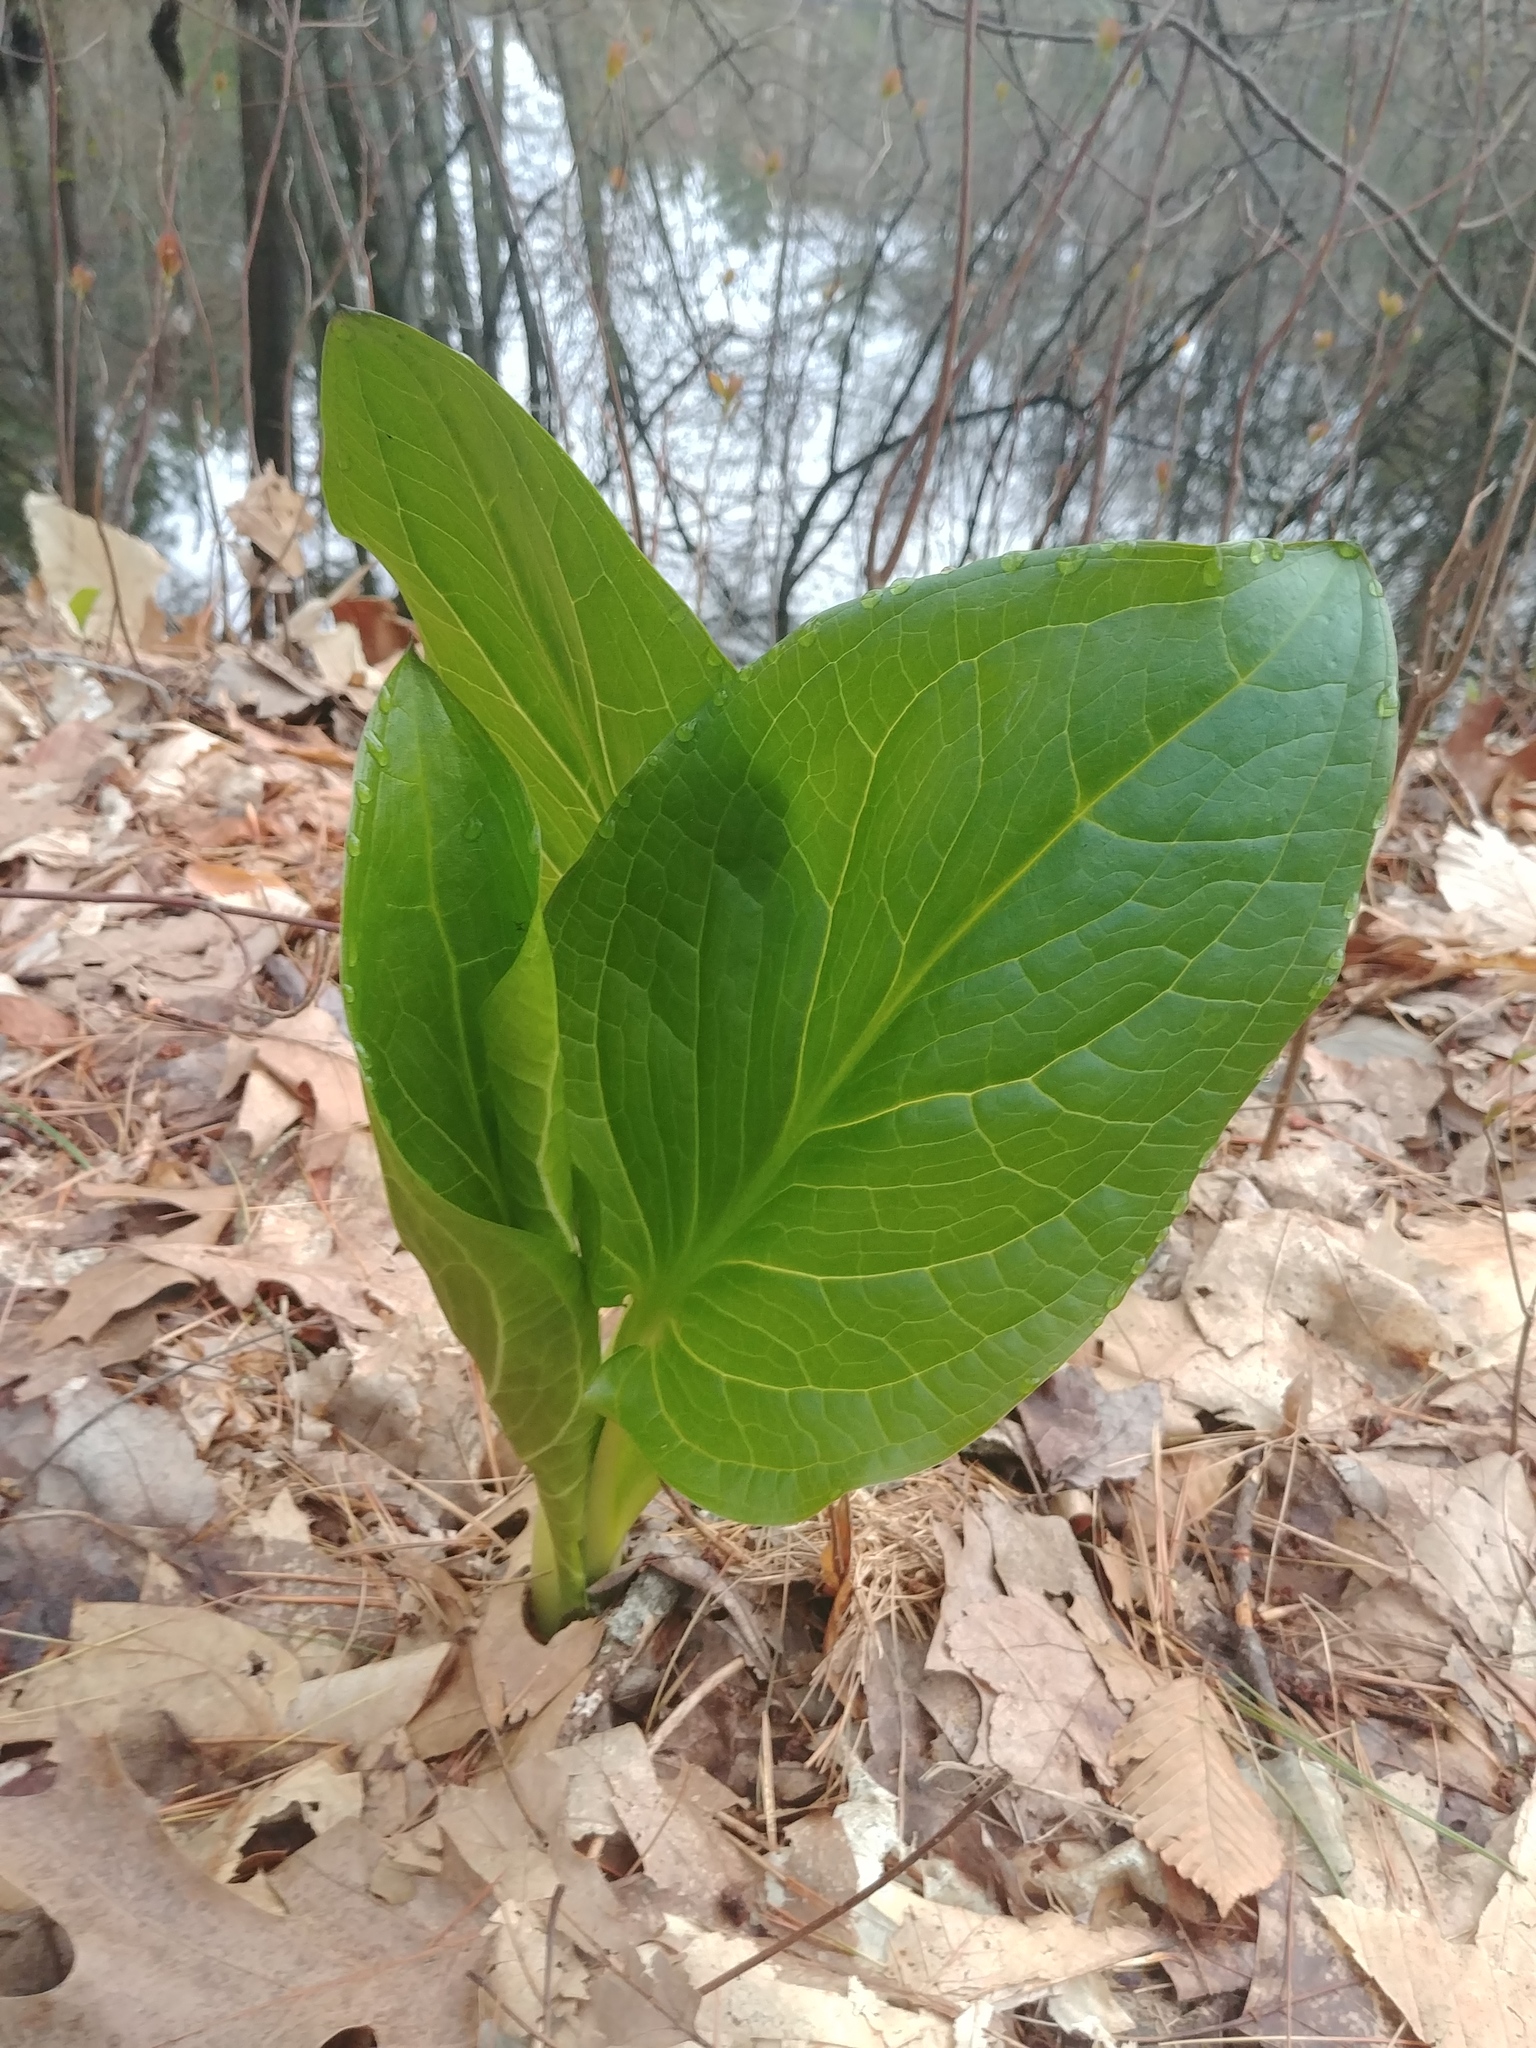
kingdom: Plantae
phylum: Tracheophyta
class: Liliopsida
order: Alismatales
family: Araceae
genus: Symplocarpus
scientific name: Symplocarpus foetidus
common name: Eastern skunk cabbage
